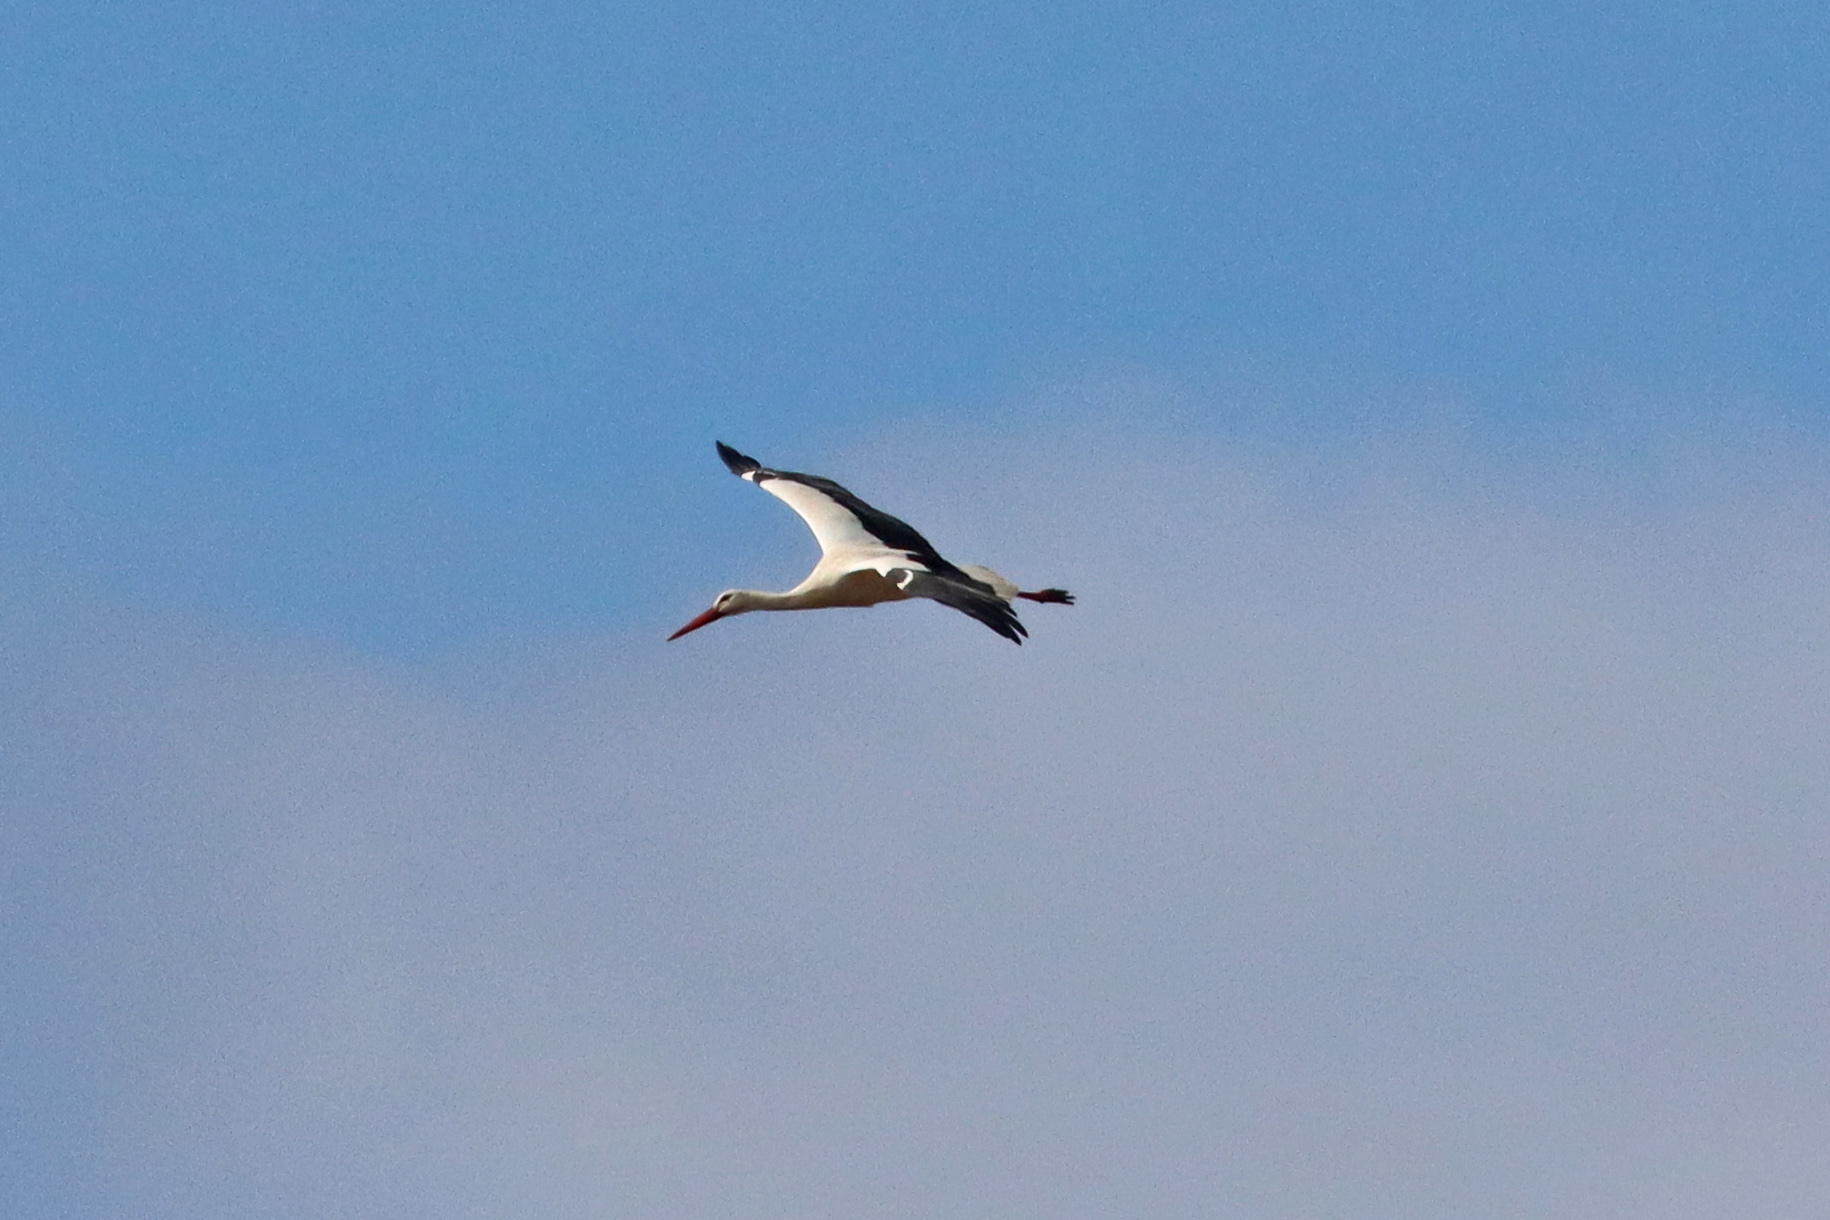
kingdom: Animalia
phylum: Chordata
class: Aves
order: Ciconiiformes
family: Ciconiidae
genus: Ciconia
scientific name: Ciconia ciconia
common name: White stork
